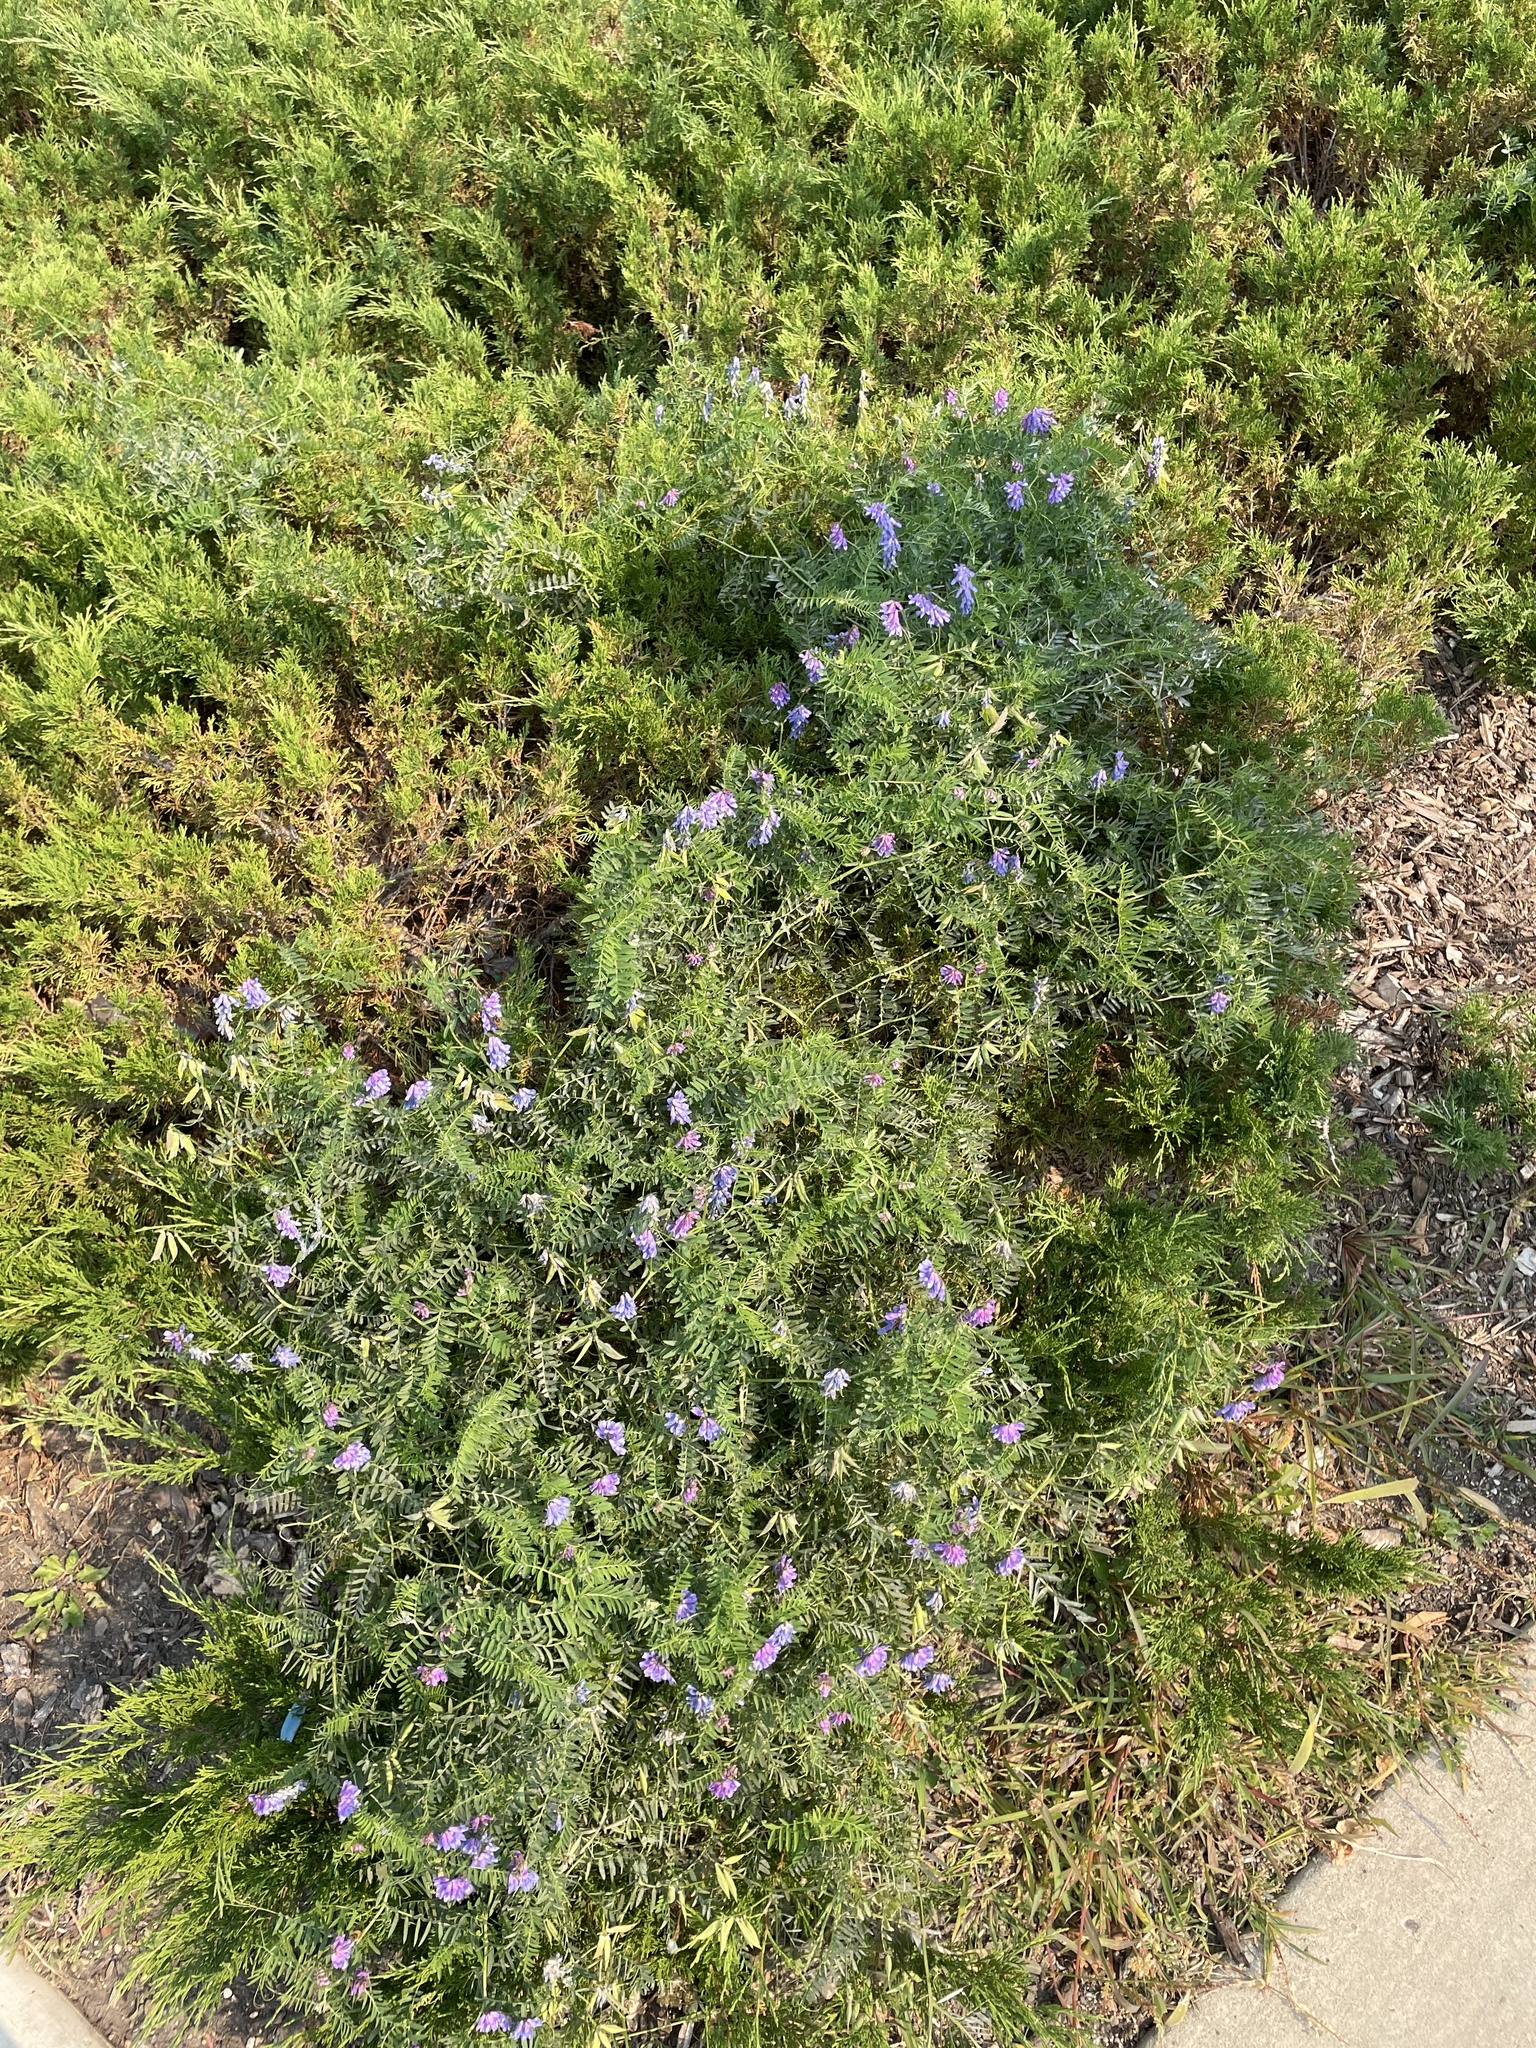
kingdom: Plantae
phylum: Tracheophyta
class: Magnoliopsida
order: Fabales
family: Fabaceae
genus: Vicia
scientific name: Vicia cracca
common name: Bird vetch
